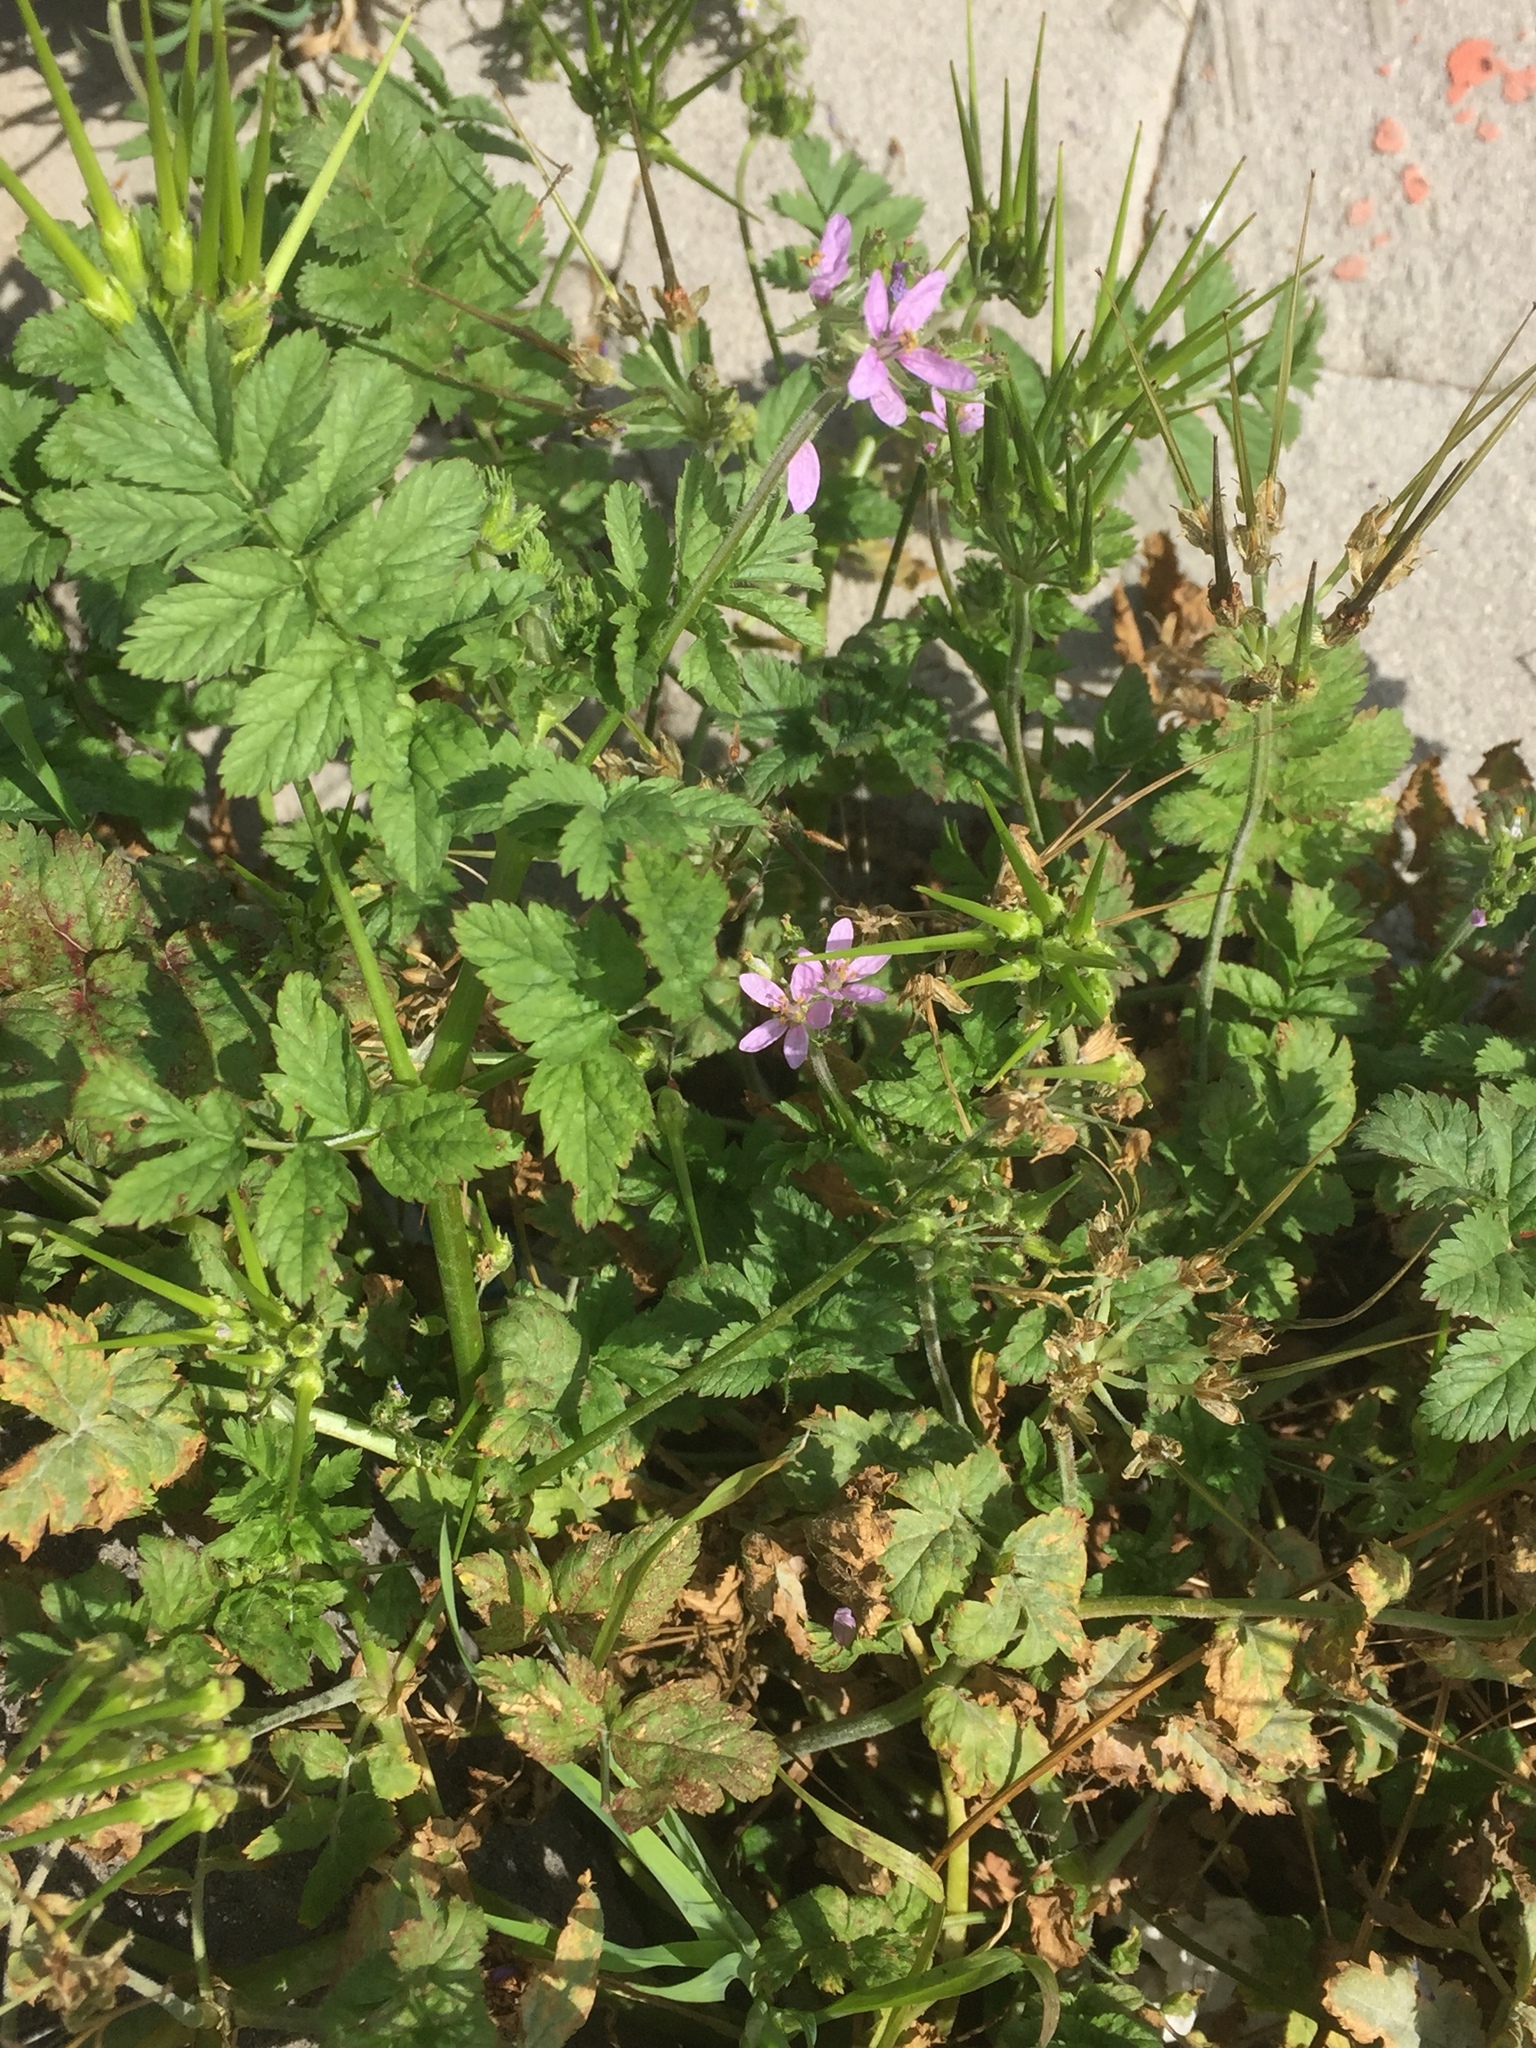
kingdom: Plantae
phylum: Tracheophyta
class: Magnoliopsida
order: Geraniales
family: Geraniaceae
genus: Erodium
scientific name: Erodium moschatum
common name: Musk stork's-bill
